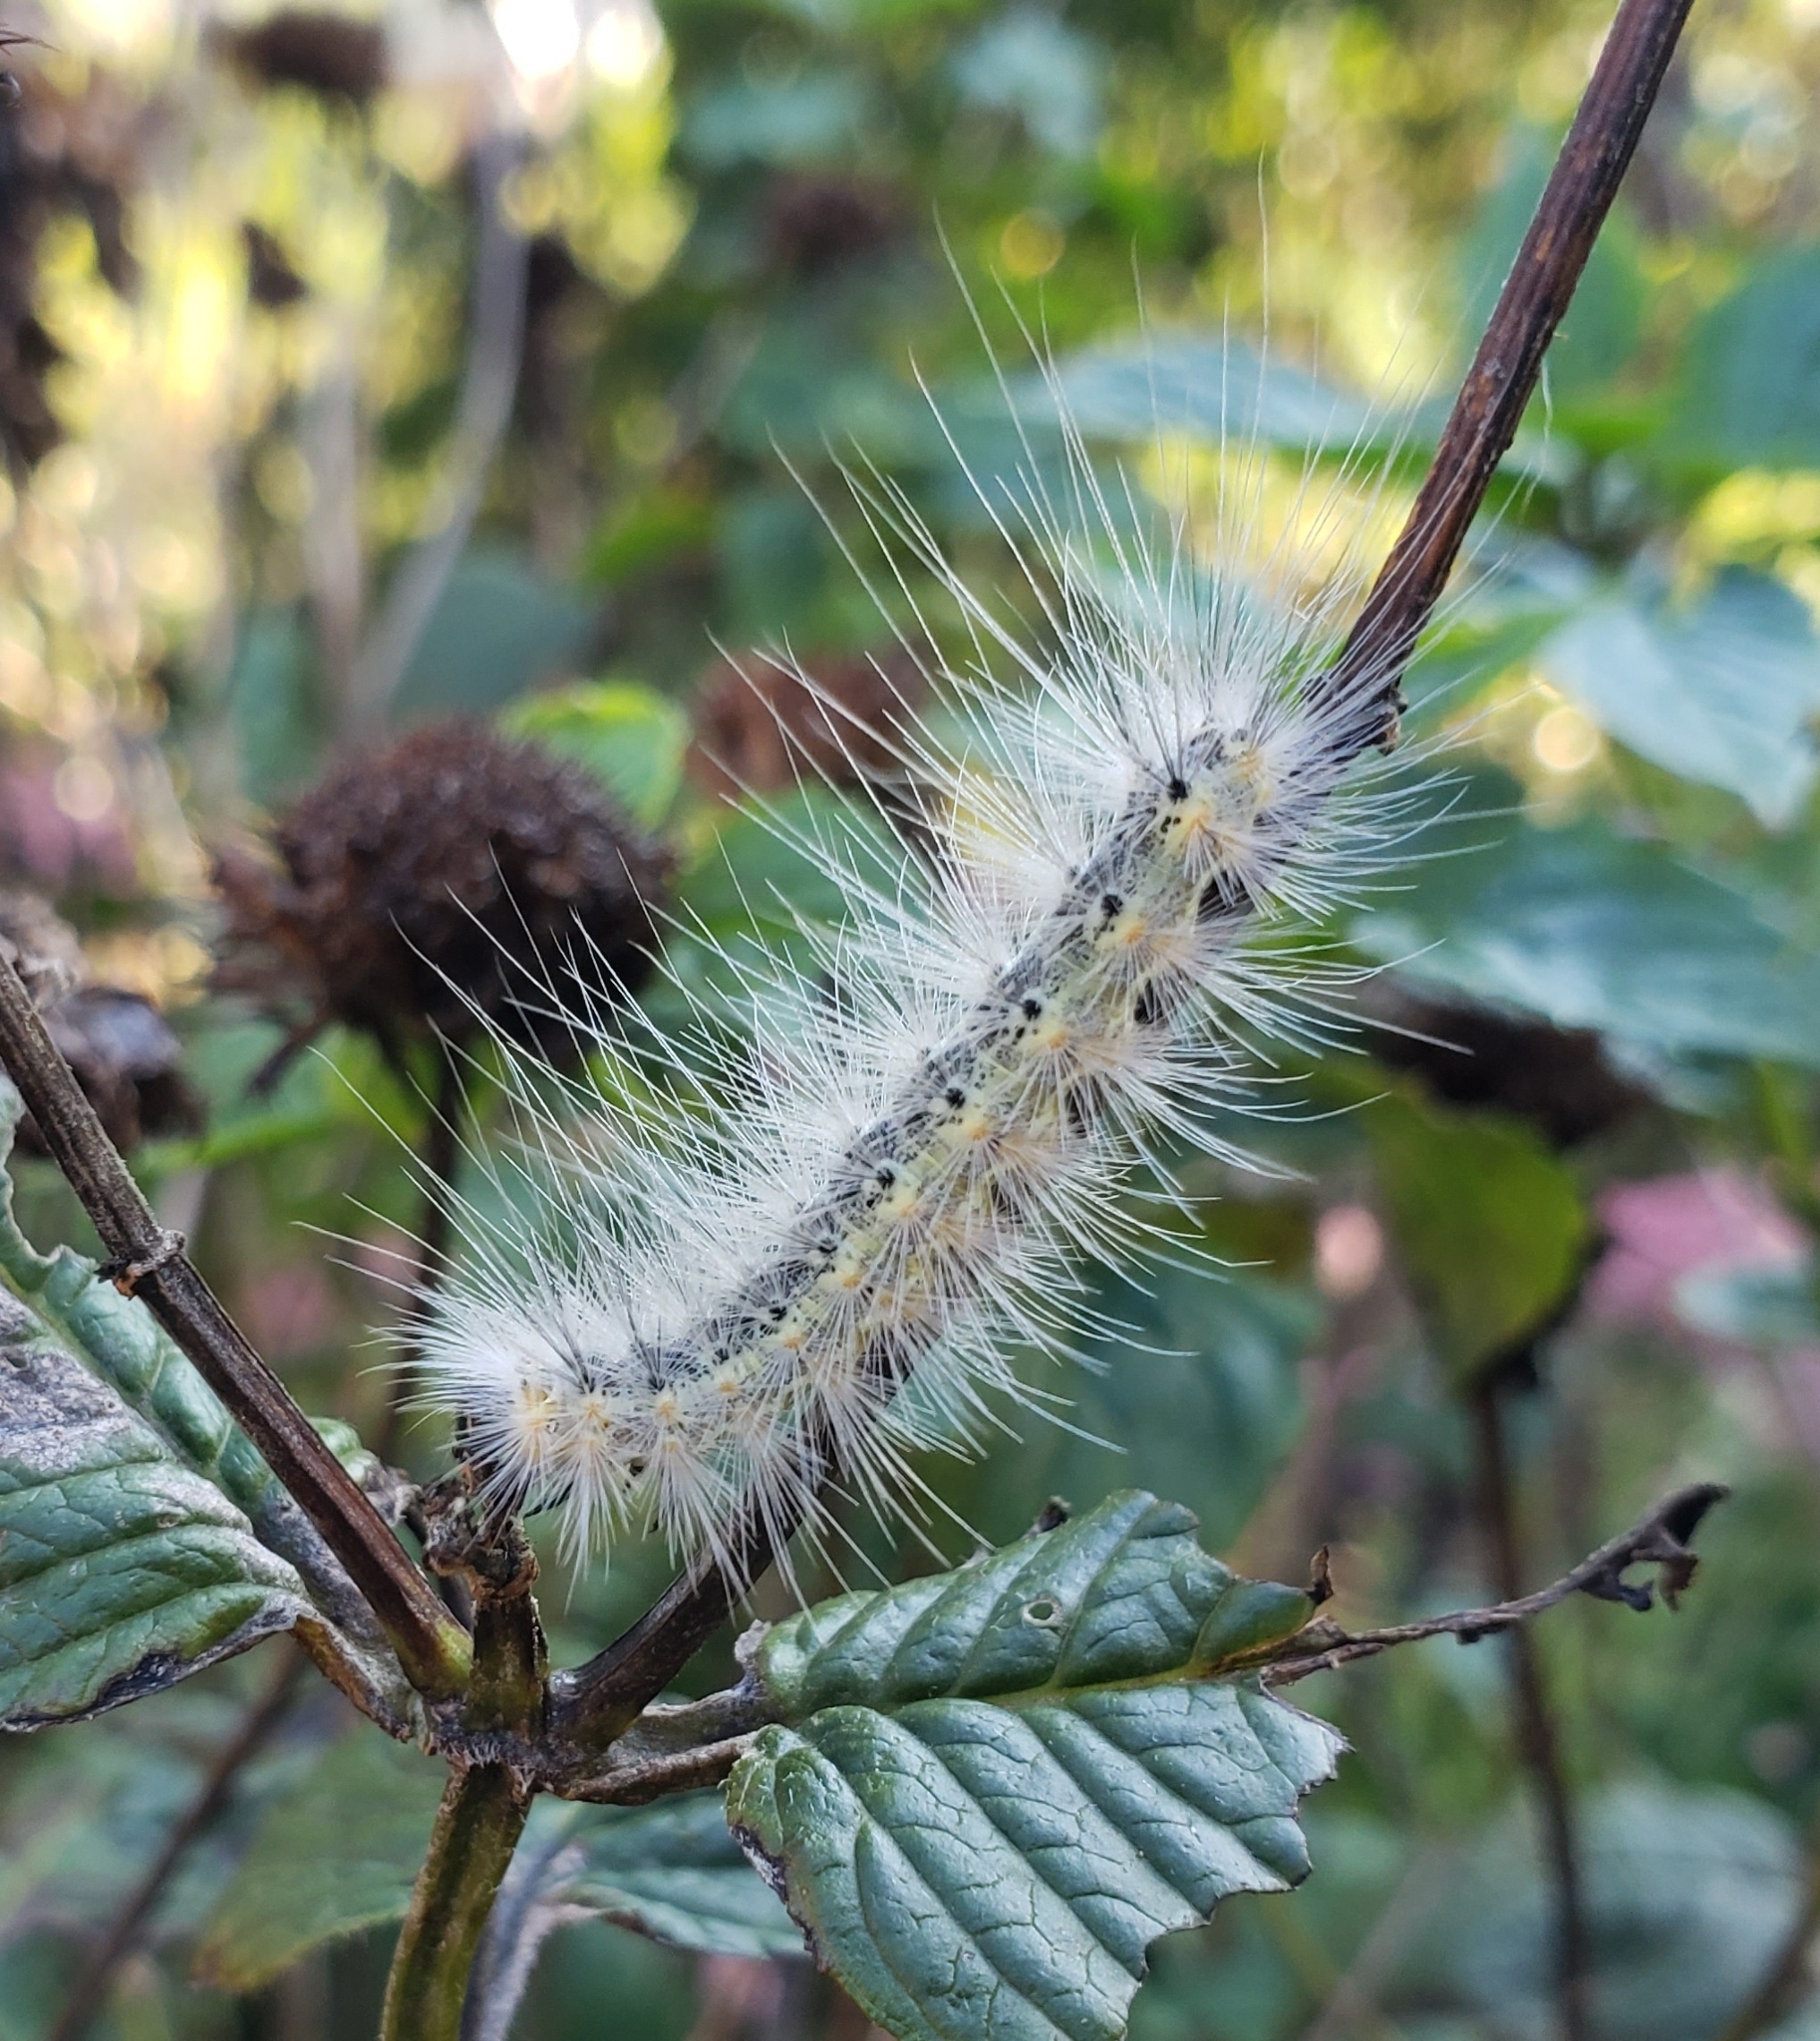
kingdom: Animalia
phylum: Arthropoda
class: Insecta
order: Lepidoptera
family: Erebidae
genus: Hyphantria
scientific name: Hyphantria cunea
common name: American white moth
